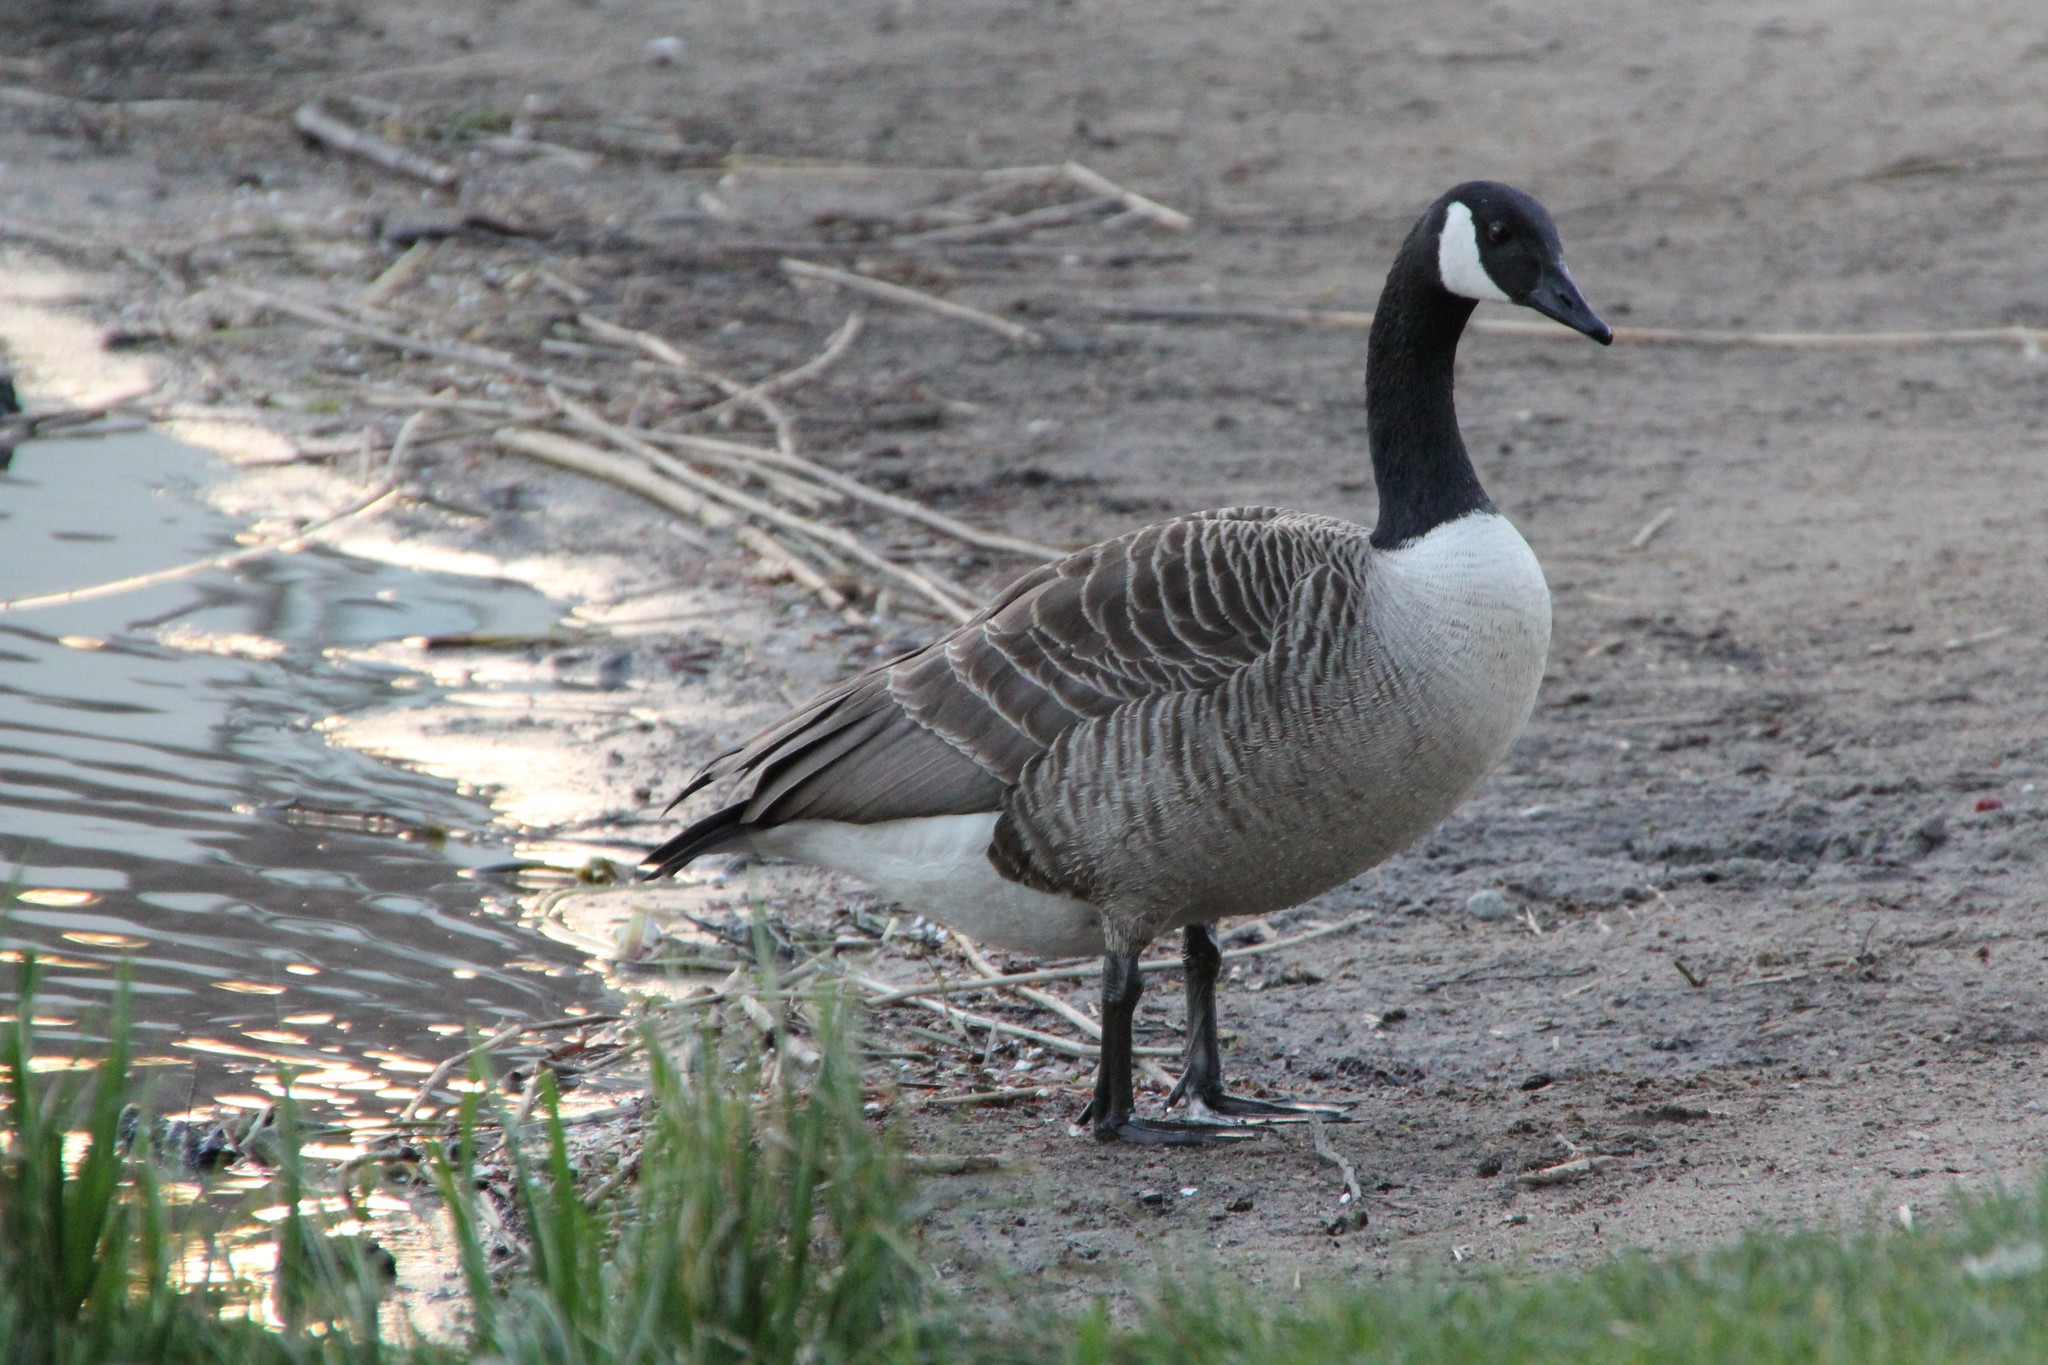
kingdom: Animalia
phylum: Chordata
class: Aves
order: Anseriformes
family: Anatidae
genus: Branta
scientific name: Branta canadensis
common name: Canada goose
